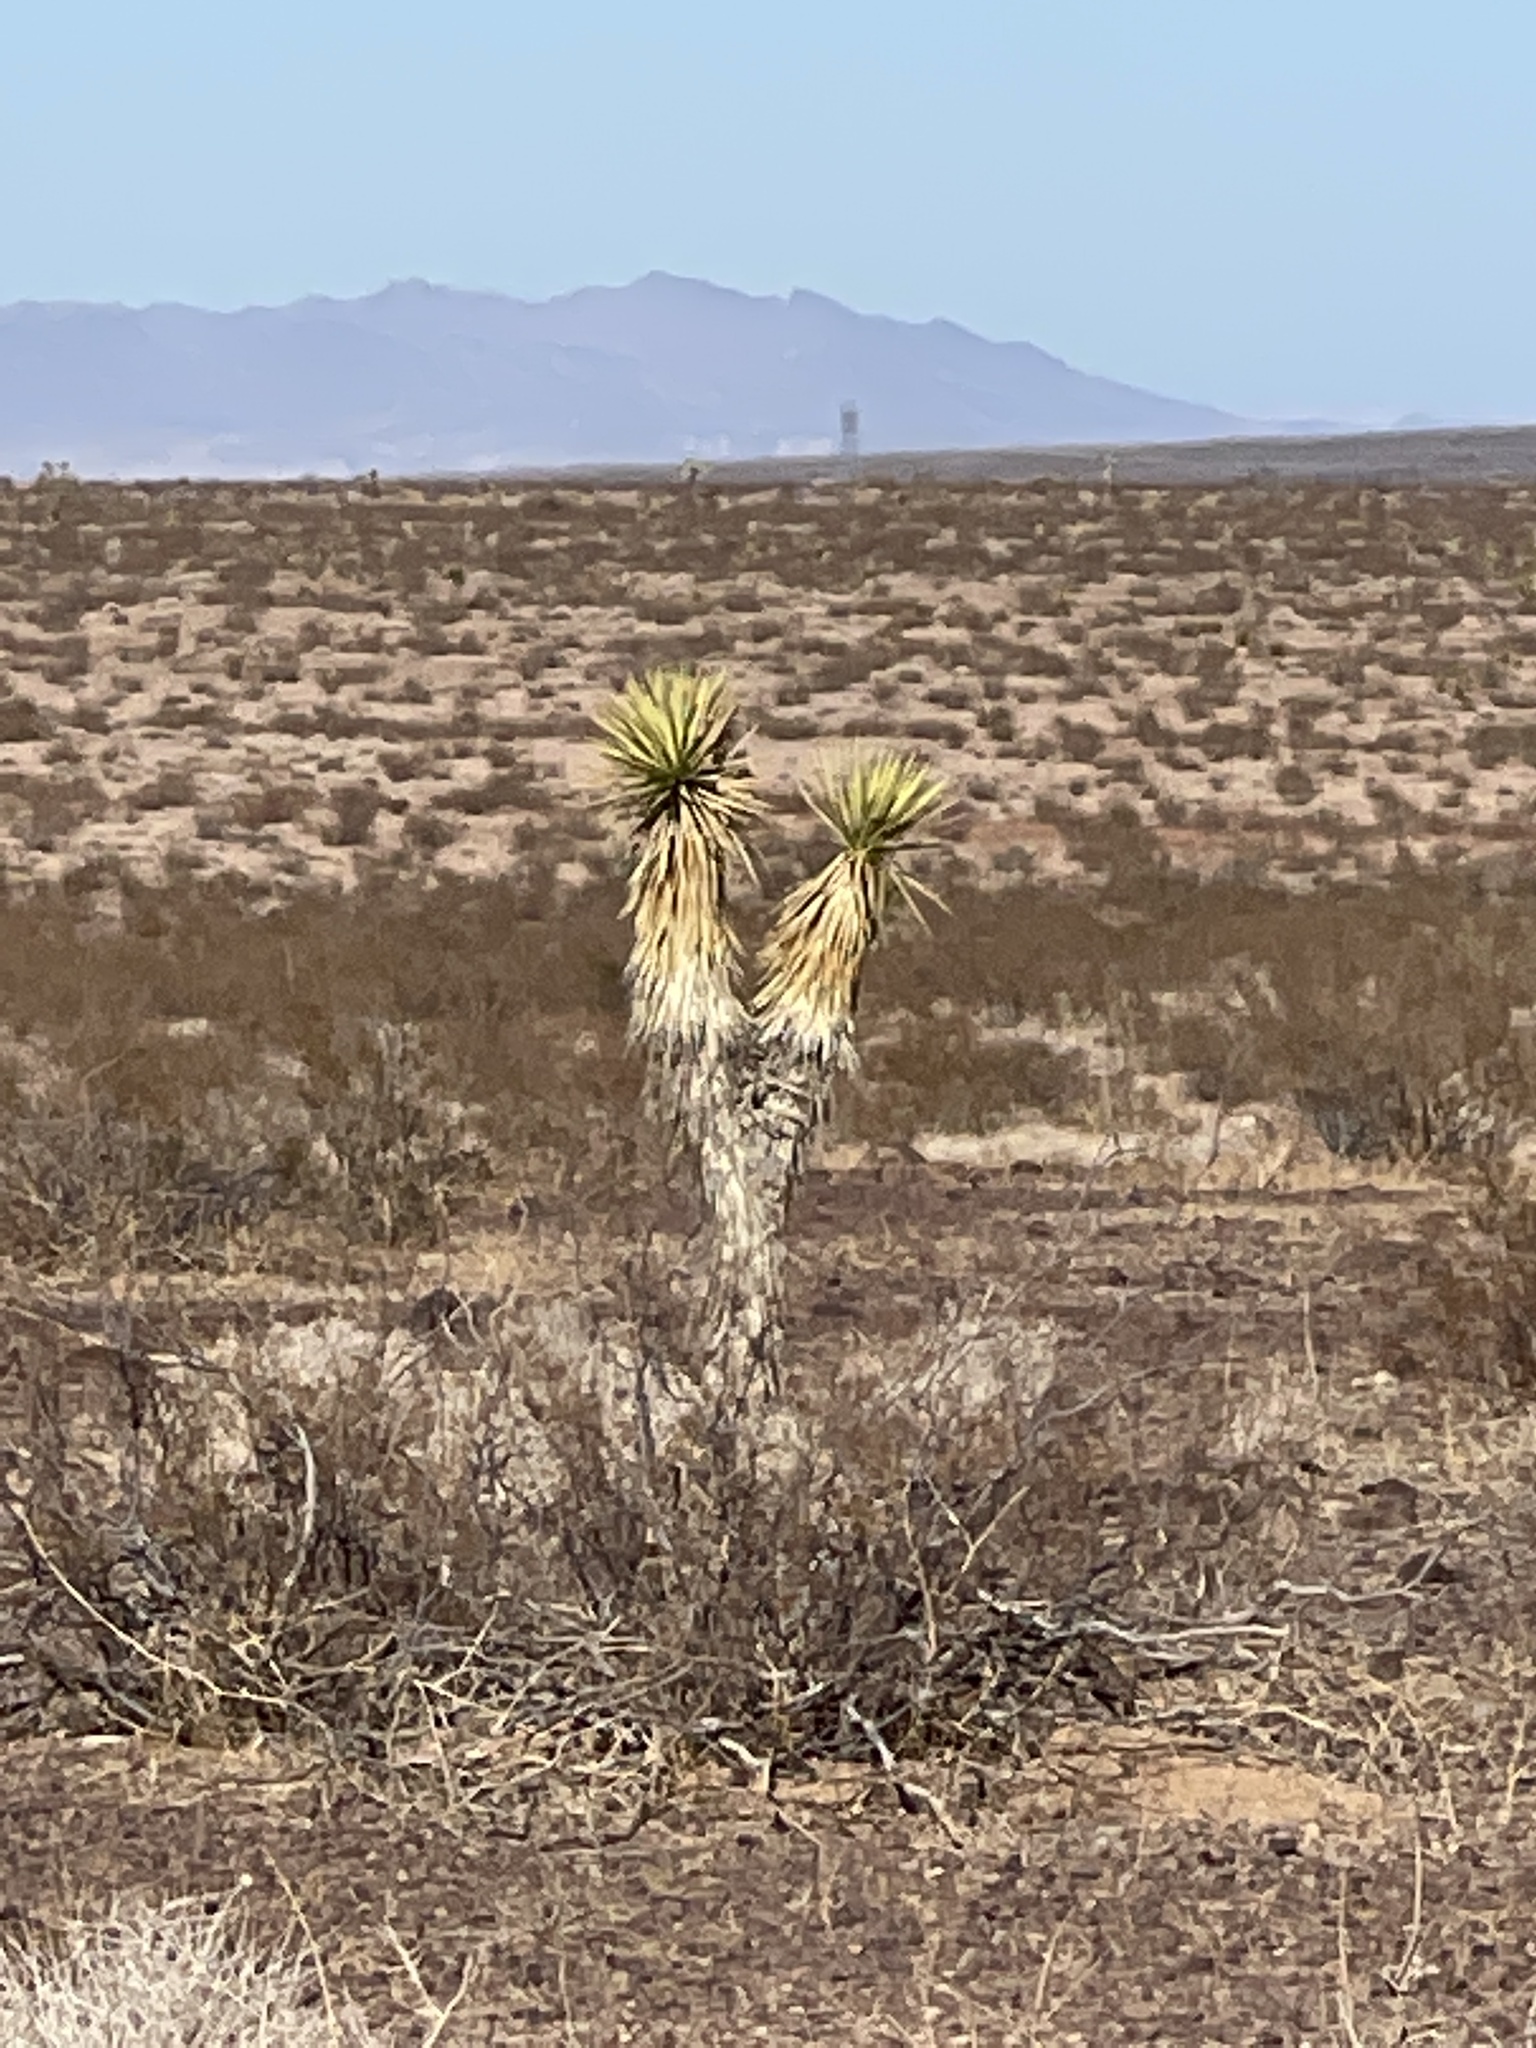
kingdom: Plantae
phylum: Tracheophyta
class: Liliopsida
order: Asparagales
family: Asparagaceae
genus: Yucca
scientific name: Yucca brevifolia
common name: Joshua tree
